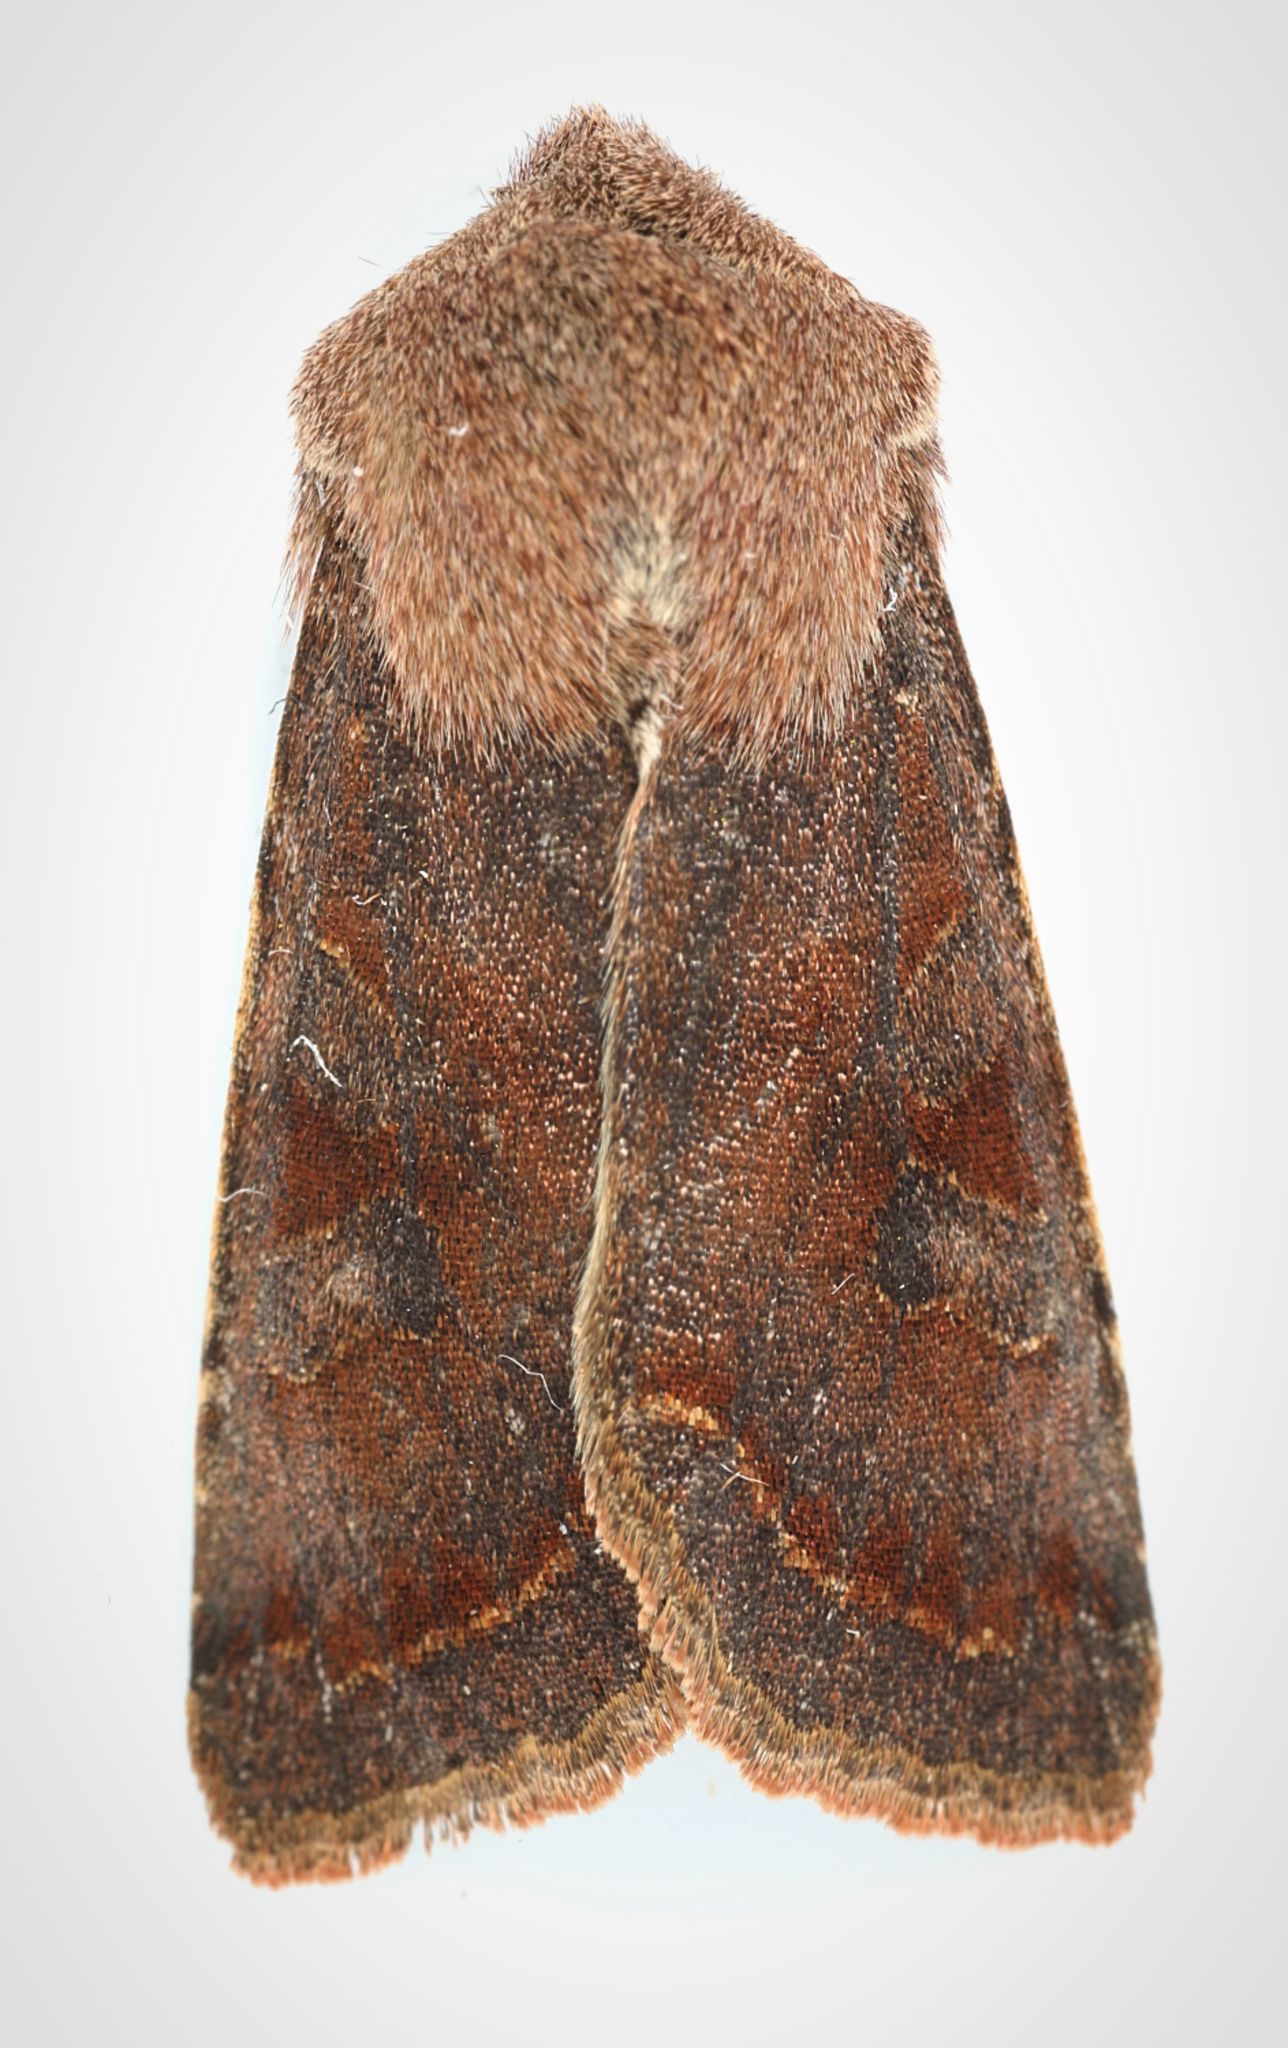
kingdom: Animalia
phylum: Arthropoda
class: Insecta
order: Lepidoptera
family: Noctuidae
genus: Orthosia
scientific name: Orthosia incerta
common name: Clouded drab
